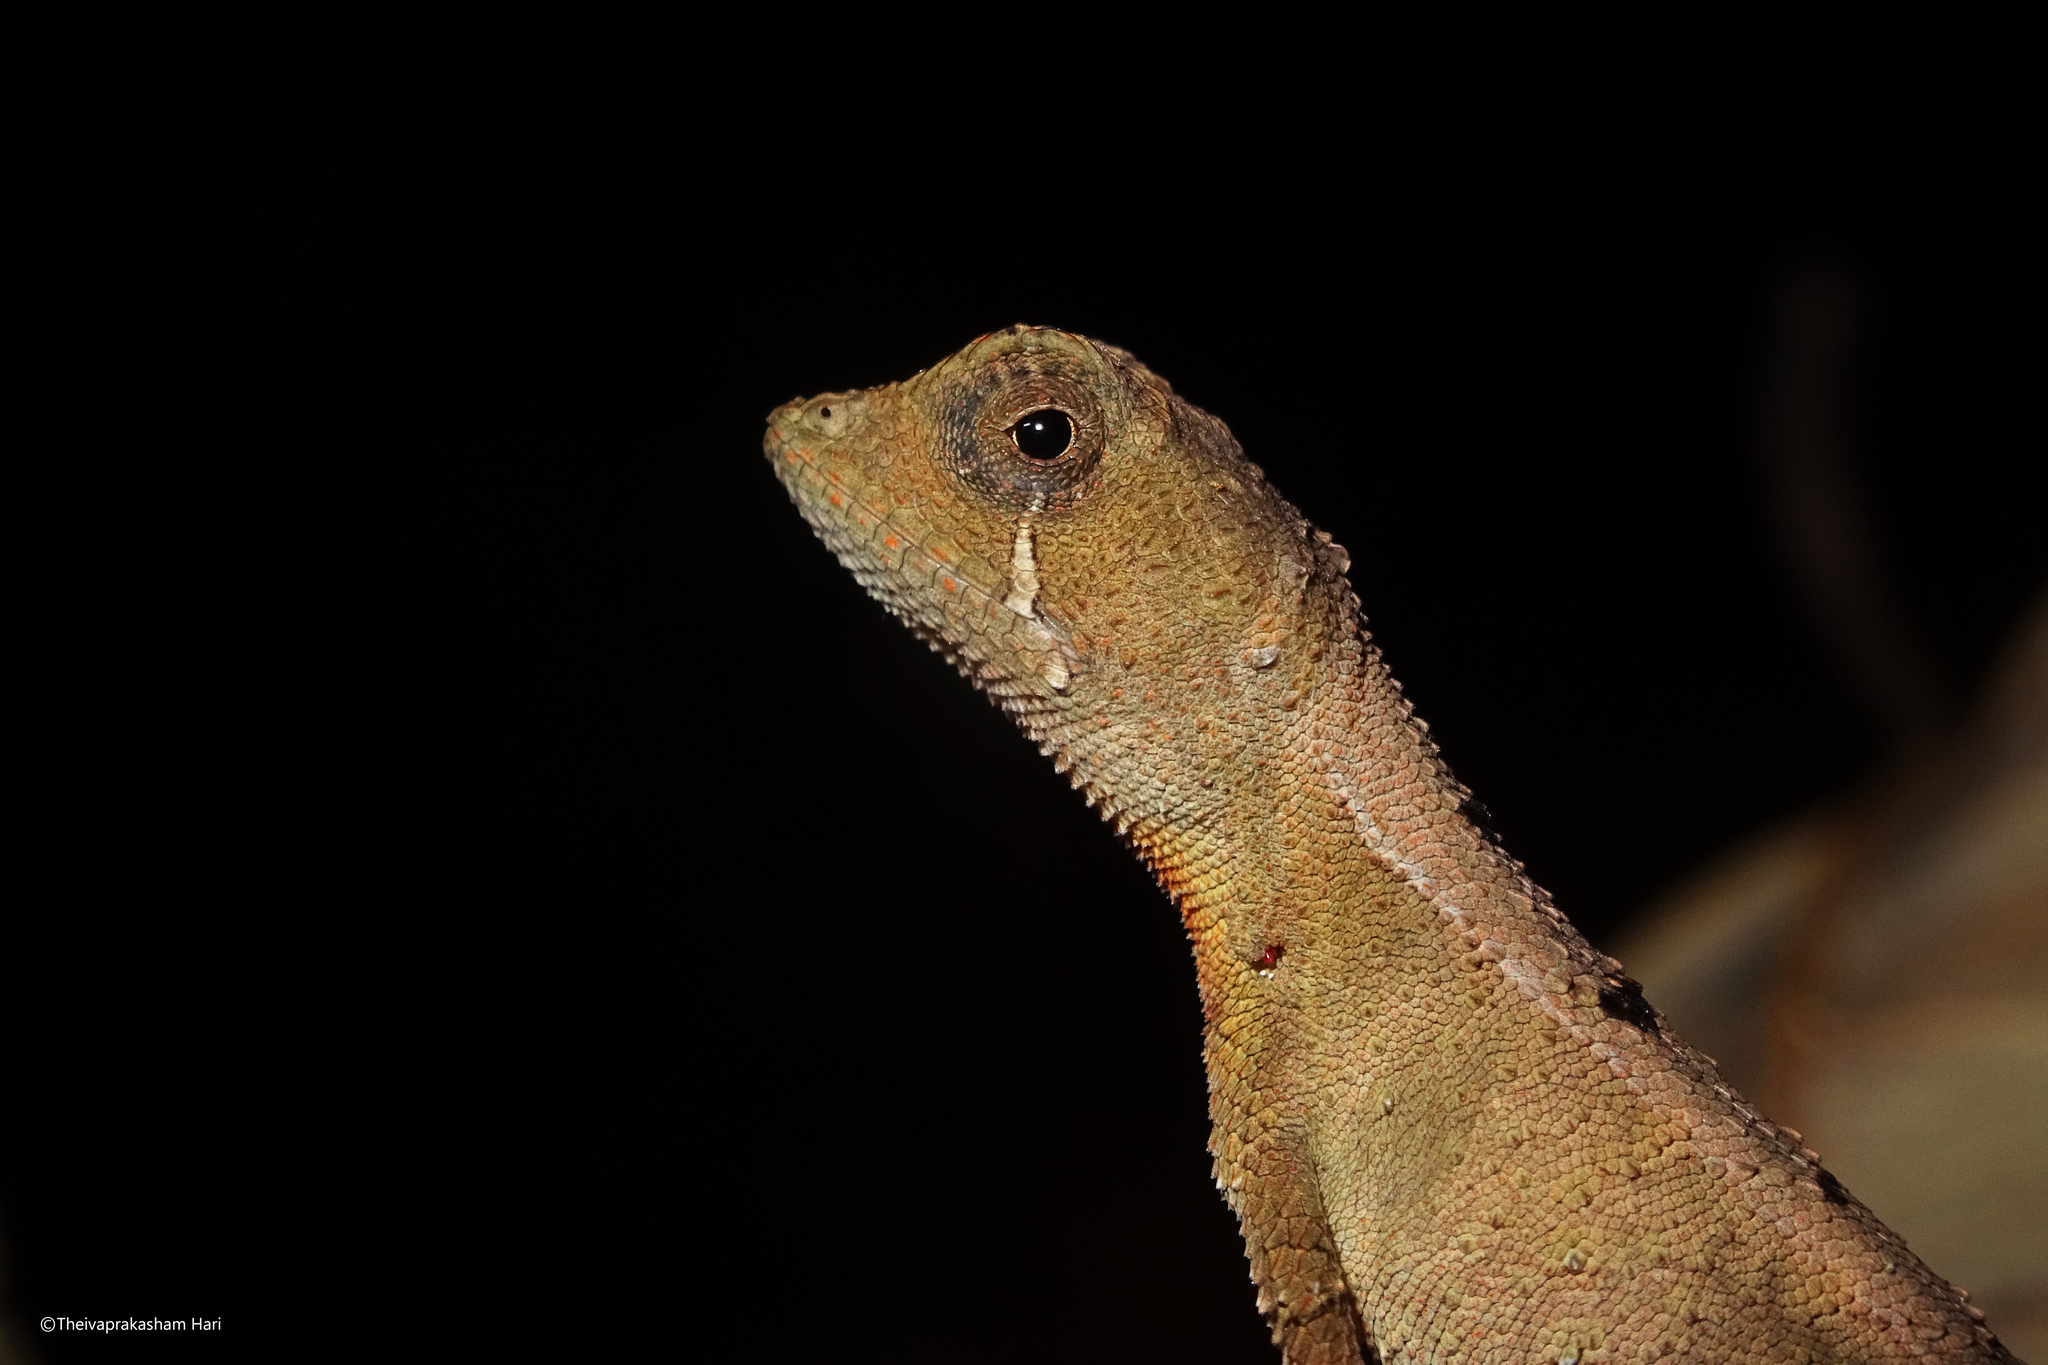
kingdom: Animalia
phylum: Chordata
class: Squamata
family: Agamidae
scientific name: Agamidae
